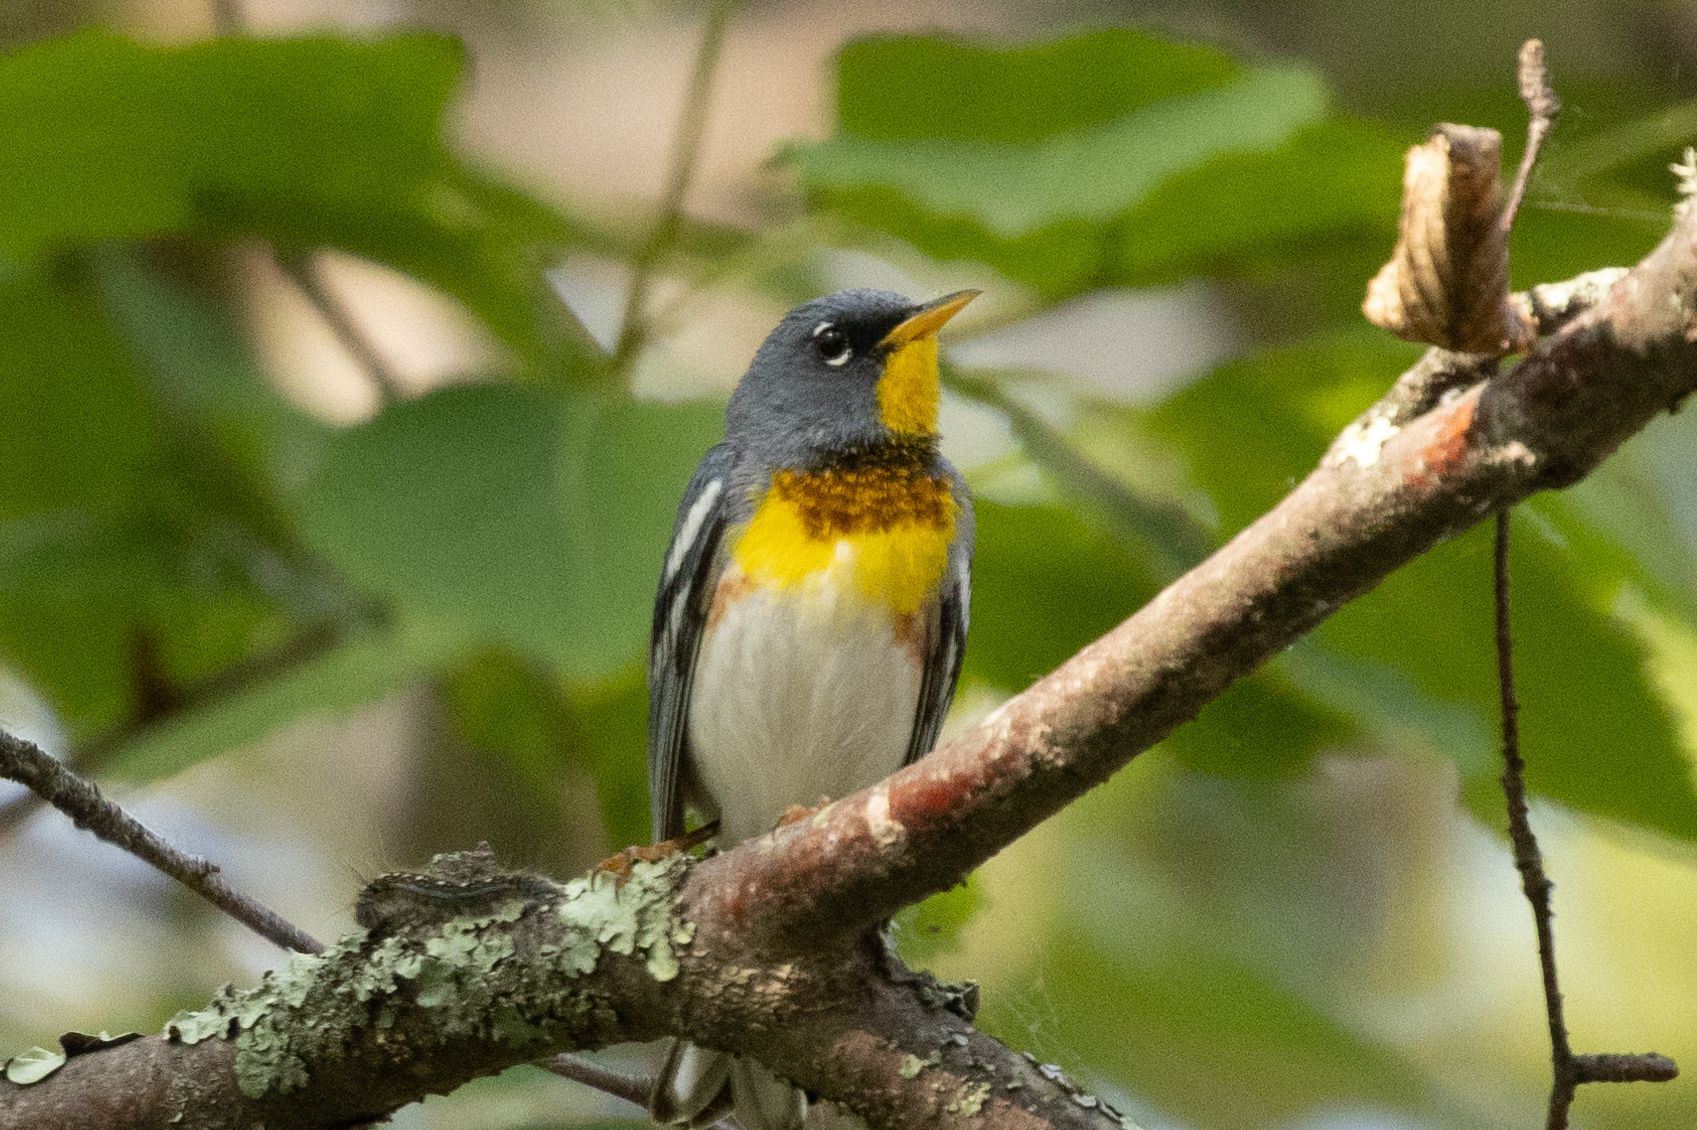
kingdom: Animalia
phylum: Chordata
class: Aves
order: Passeriformes
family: Parulidae
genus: Setophaga
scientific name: Setophaga americana
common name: Northern parula
